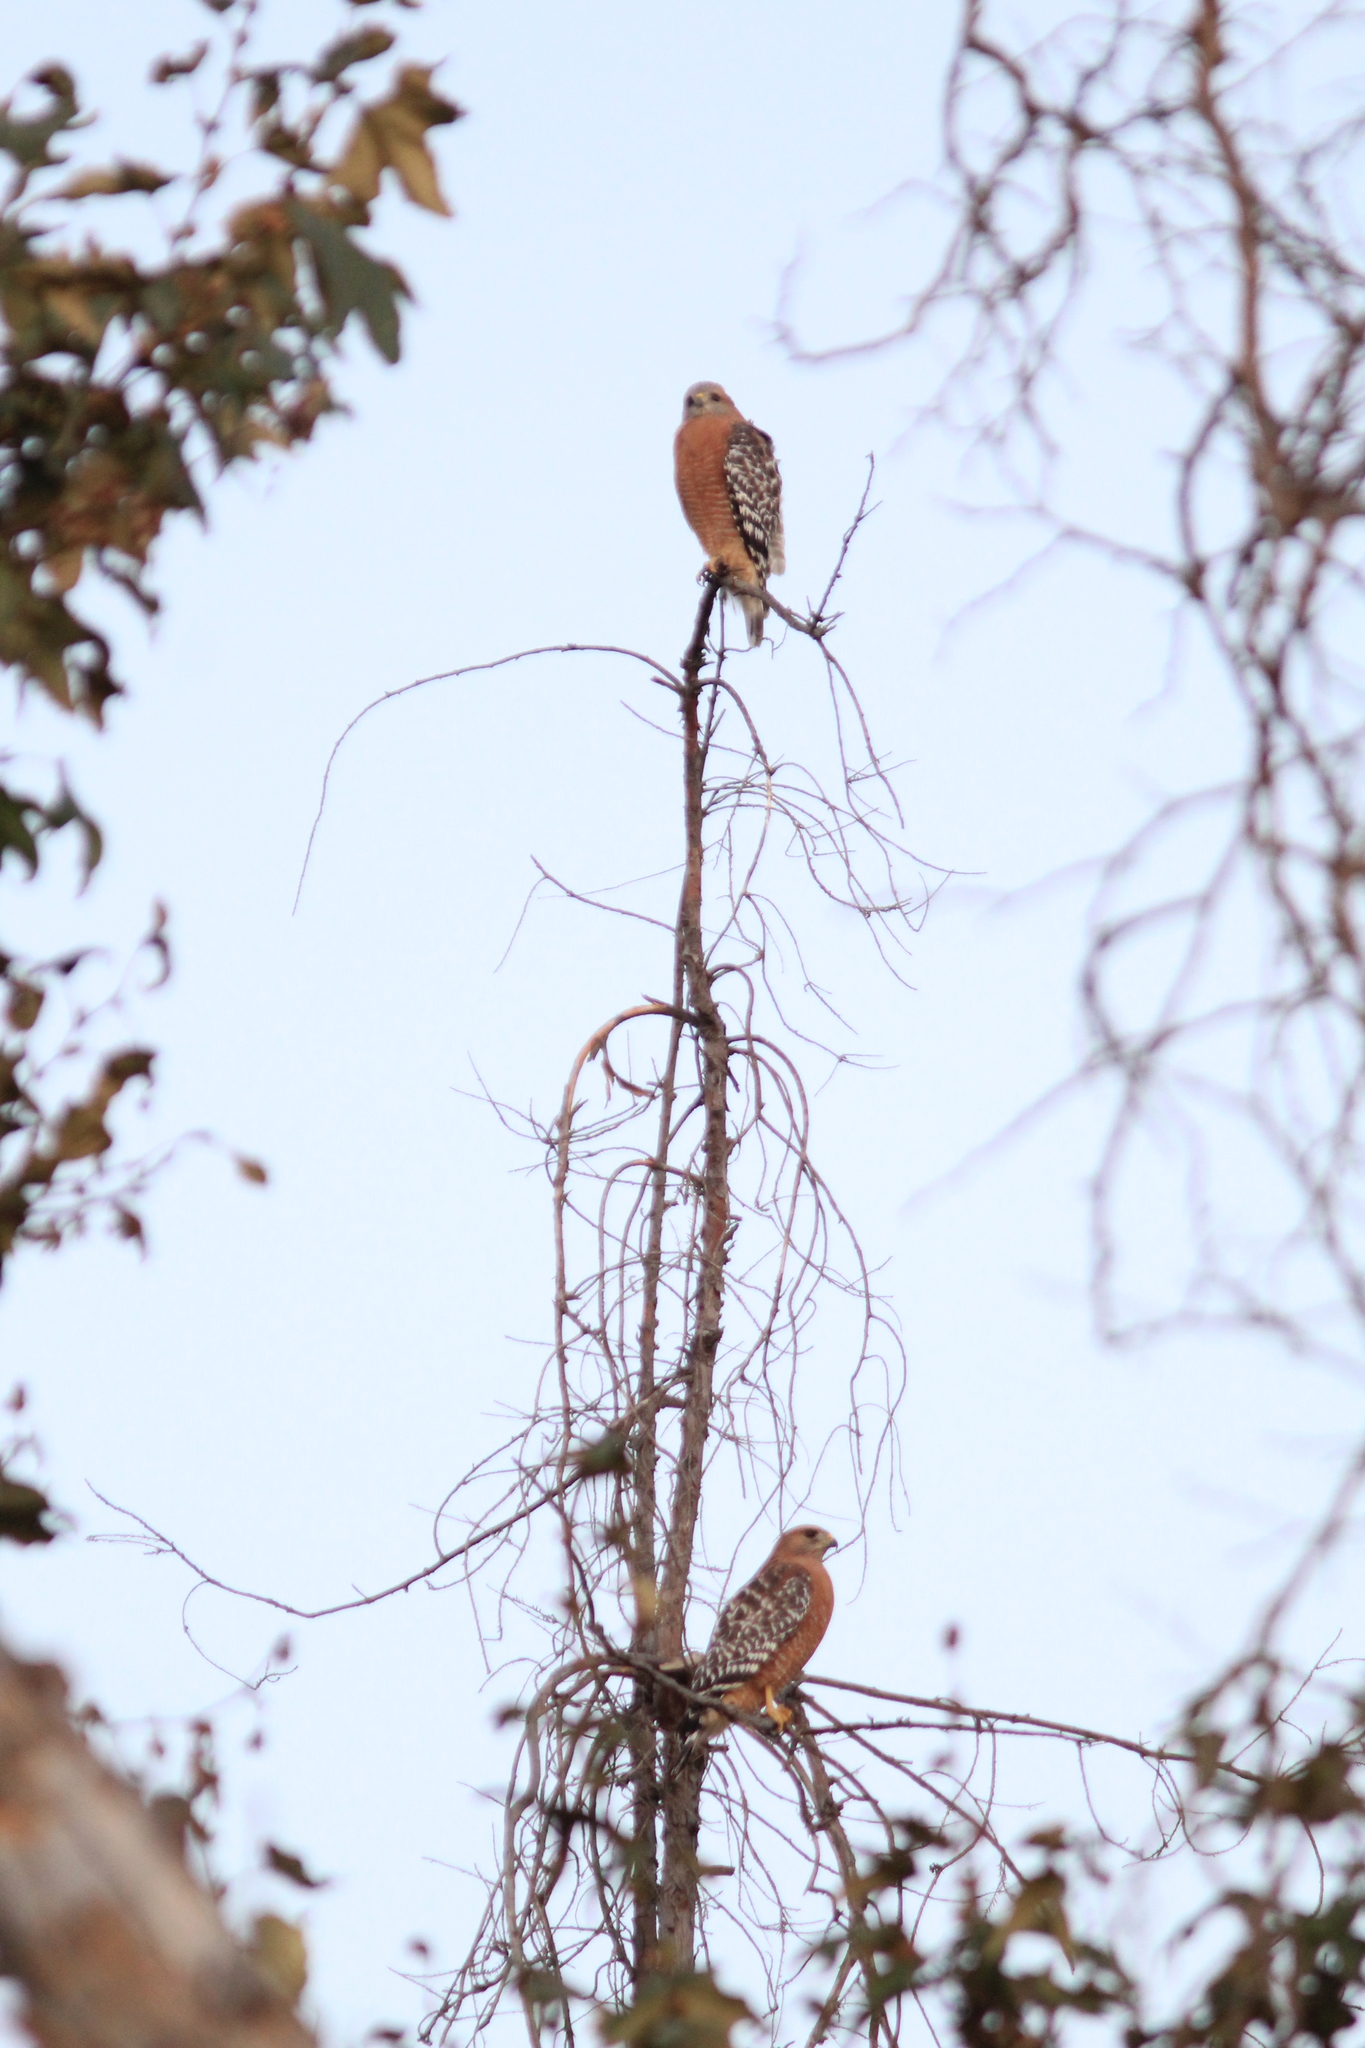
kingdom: Animalia
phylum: Chordata
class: Aves
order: Accipitriformes
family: Accipitridae
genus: Buteo
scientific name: Buteo lineatus
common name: Red-shouldered hawk
